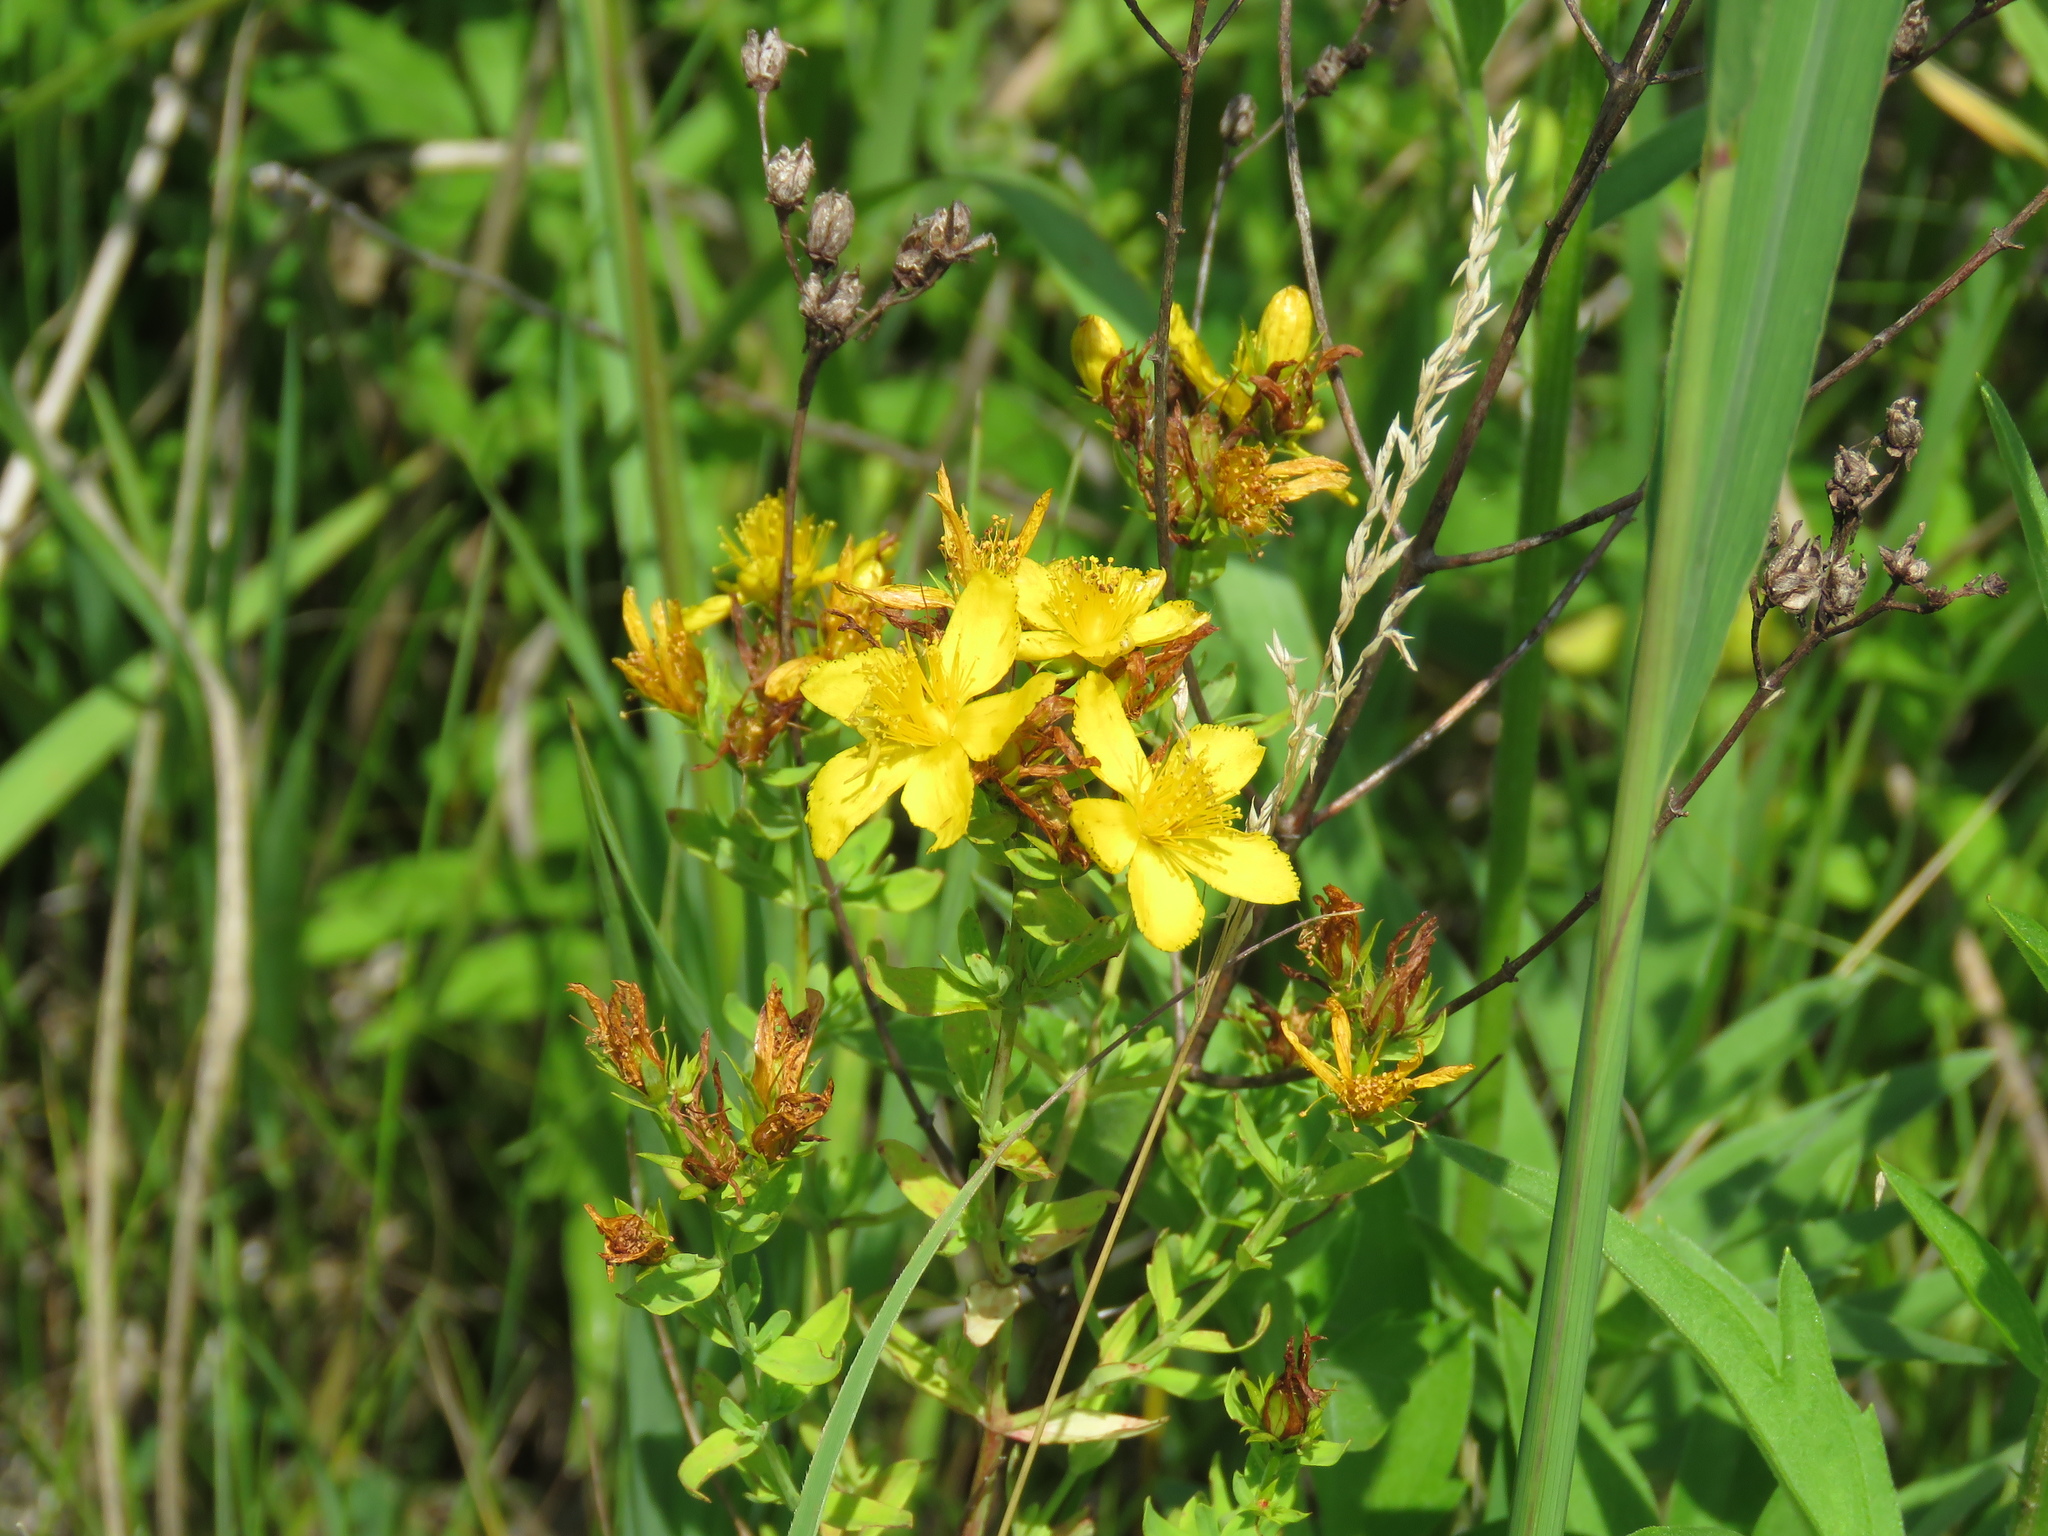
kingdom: Plantae
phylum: Tracheophyta
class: Magnoliopsida
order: Malpighiales
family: Hypericaceae
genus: Hypericum
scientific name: Hypericum perforatum
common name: Common st. johnswort
